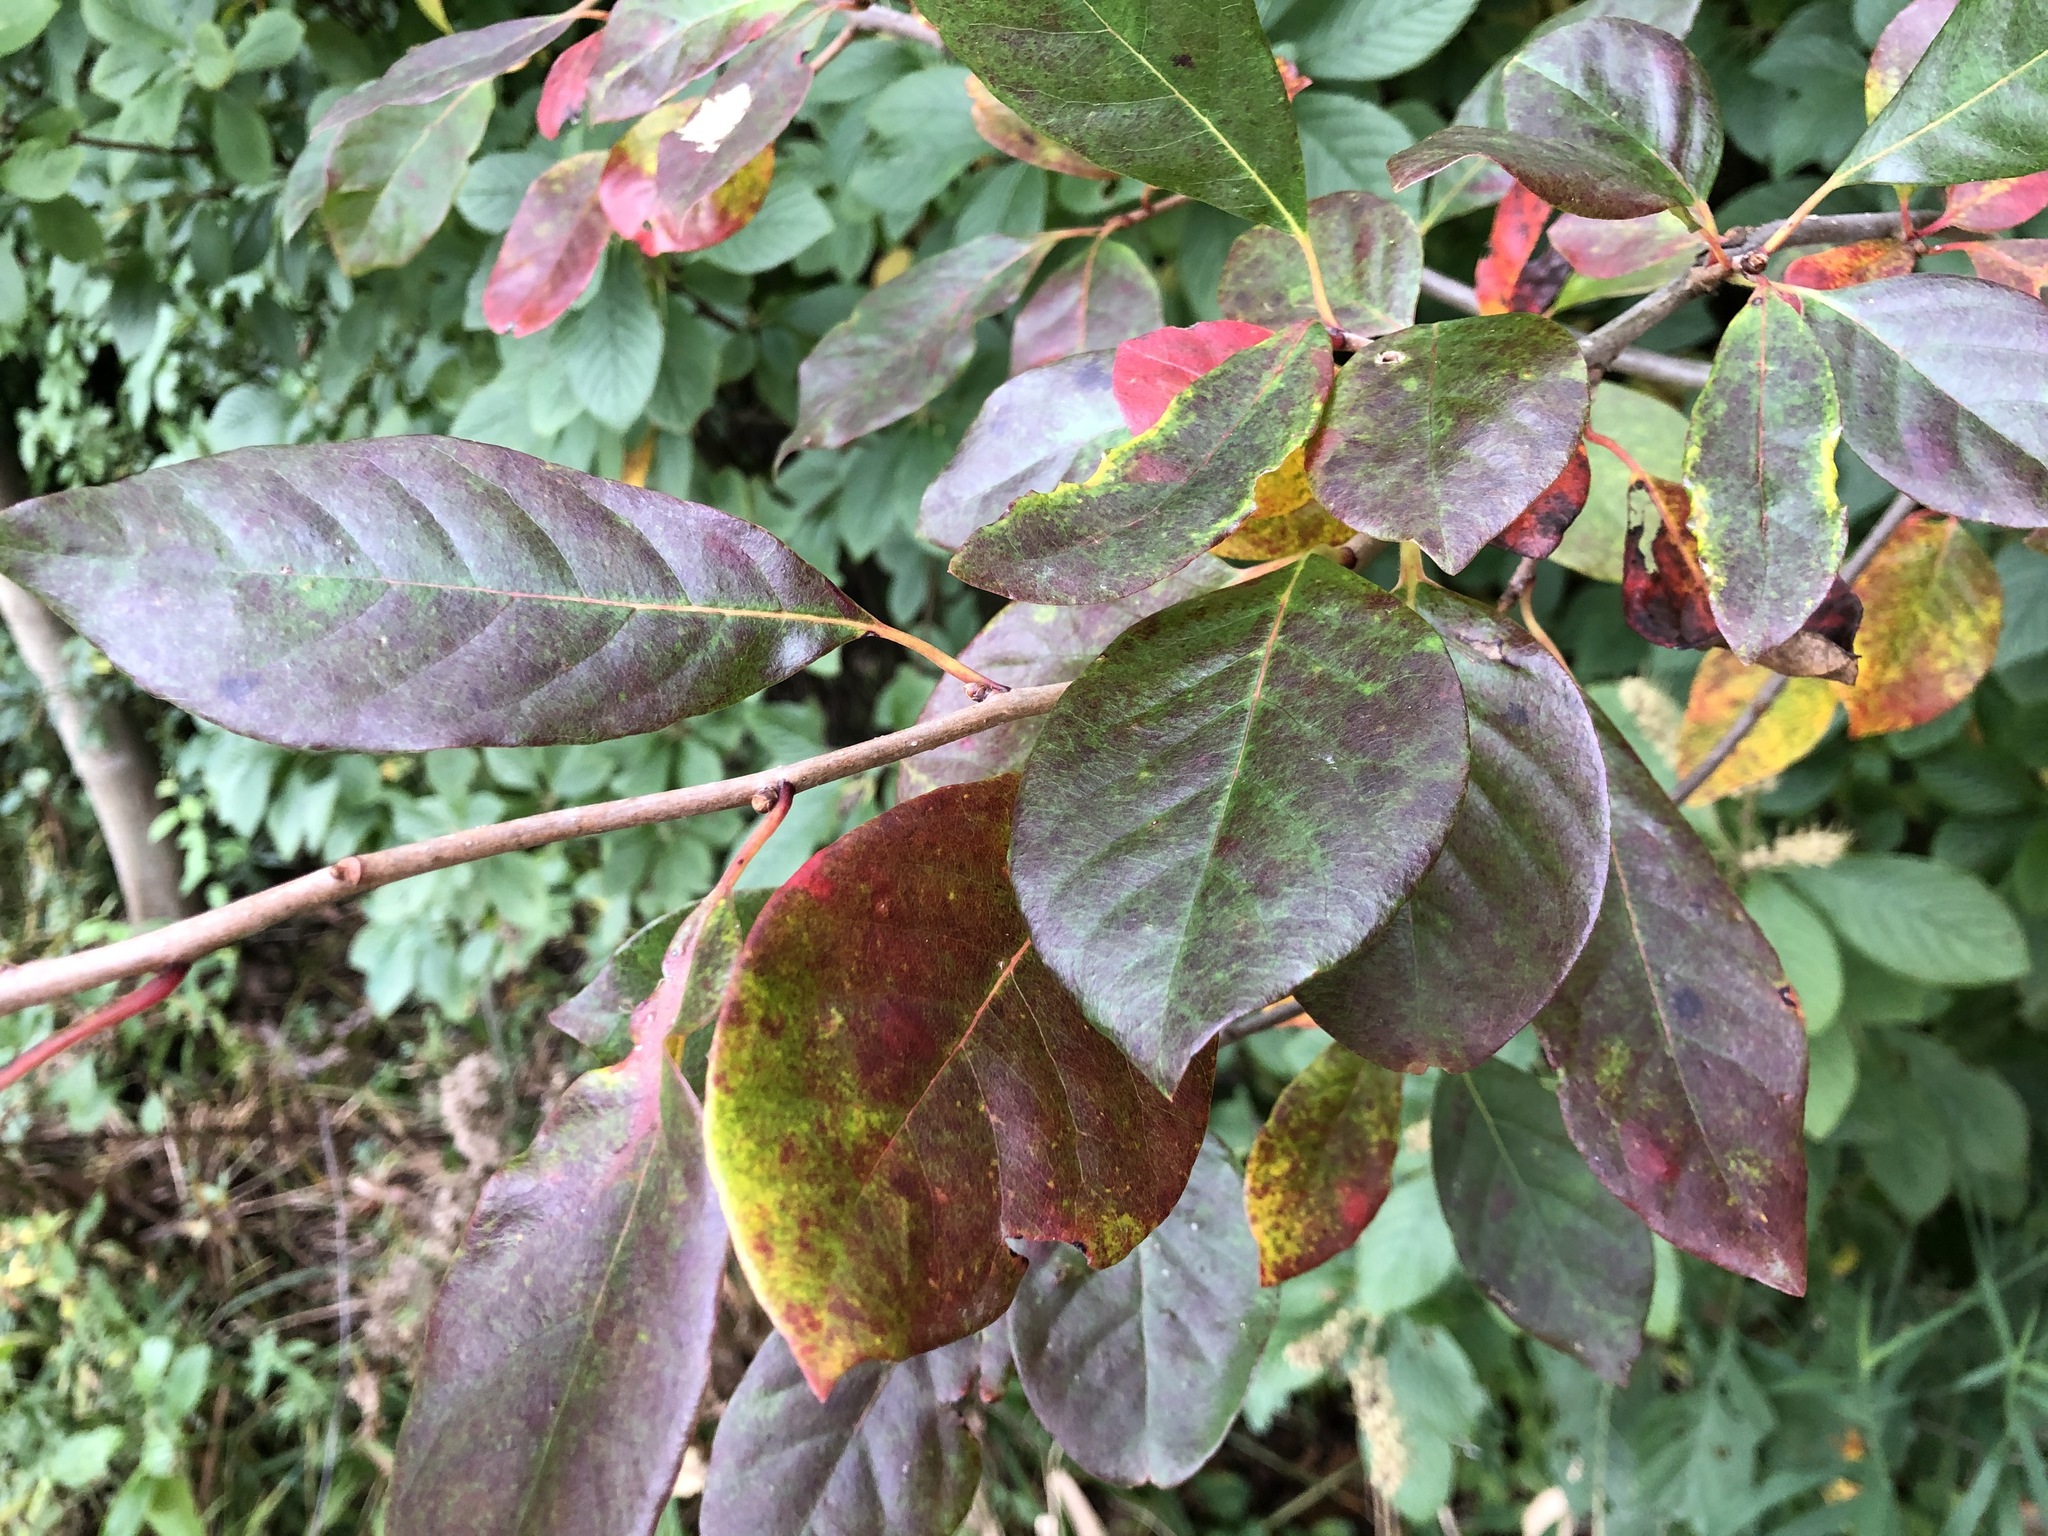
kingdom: Plantae
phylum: Tracheophyta
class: Magnoliopsida
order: Cornales
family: Nyssaceae
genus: Nyssa
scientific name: Nyssa sylvatica
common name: Black tupelo
